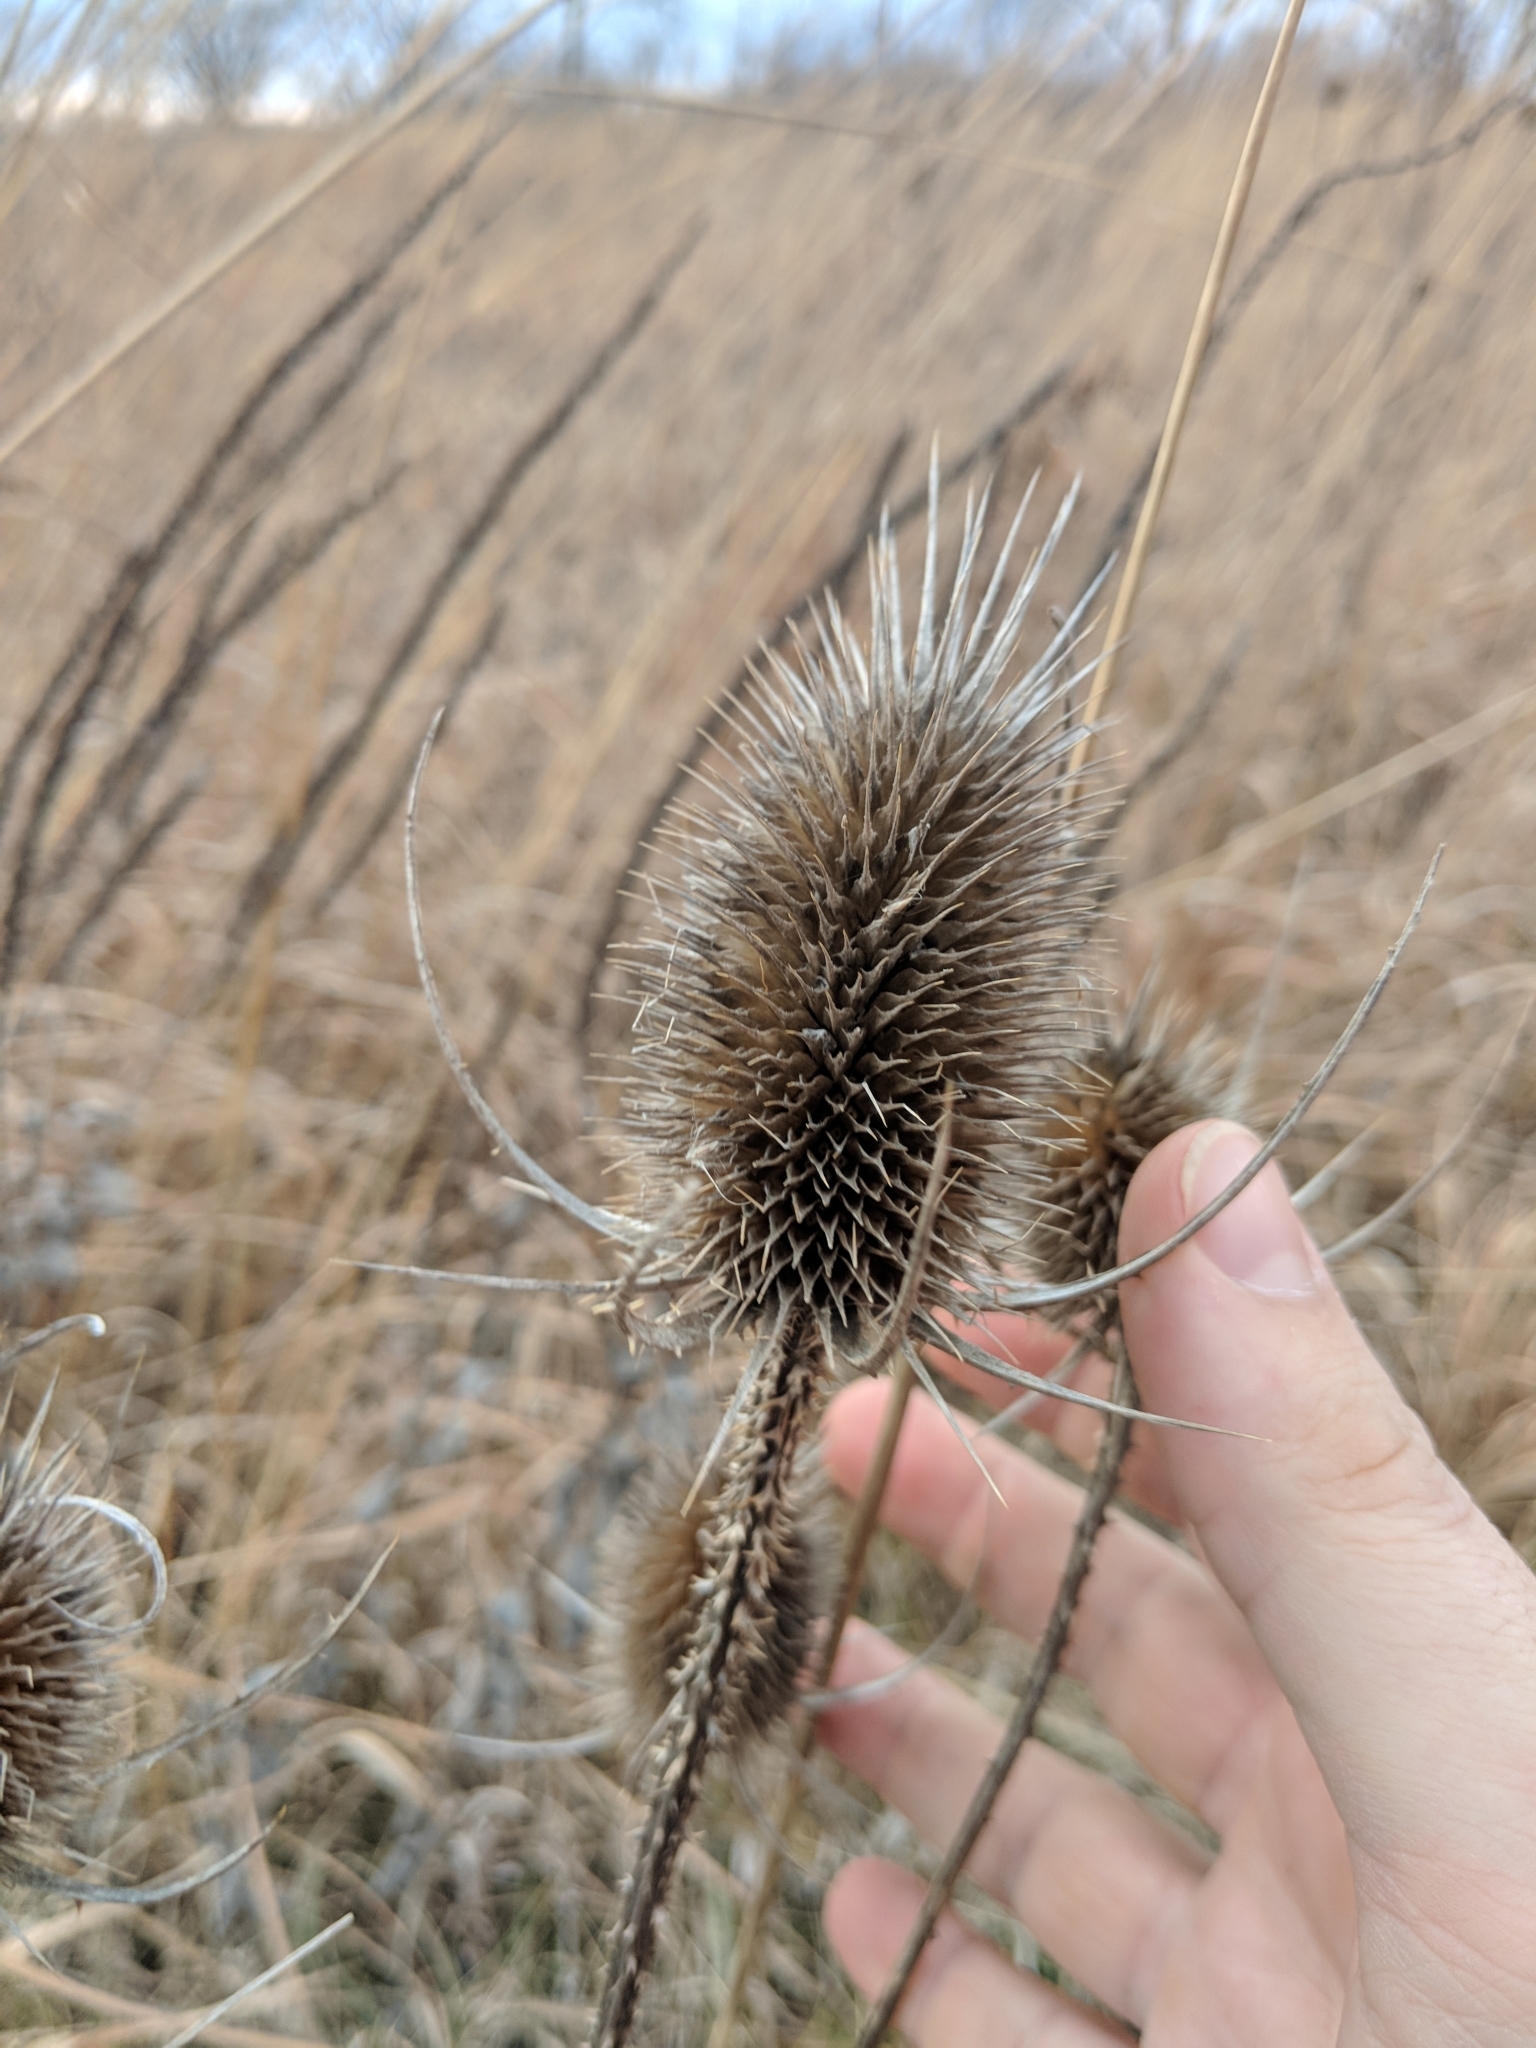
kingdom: Plantae
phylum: Tracheophyta
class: Magnoliopsida
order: Dipsacales
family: Caprifoliaceae
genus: Dipsacus
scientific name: Dipsacus fullonum
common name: Teasel
